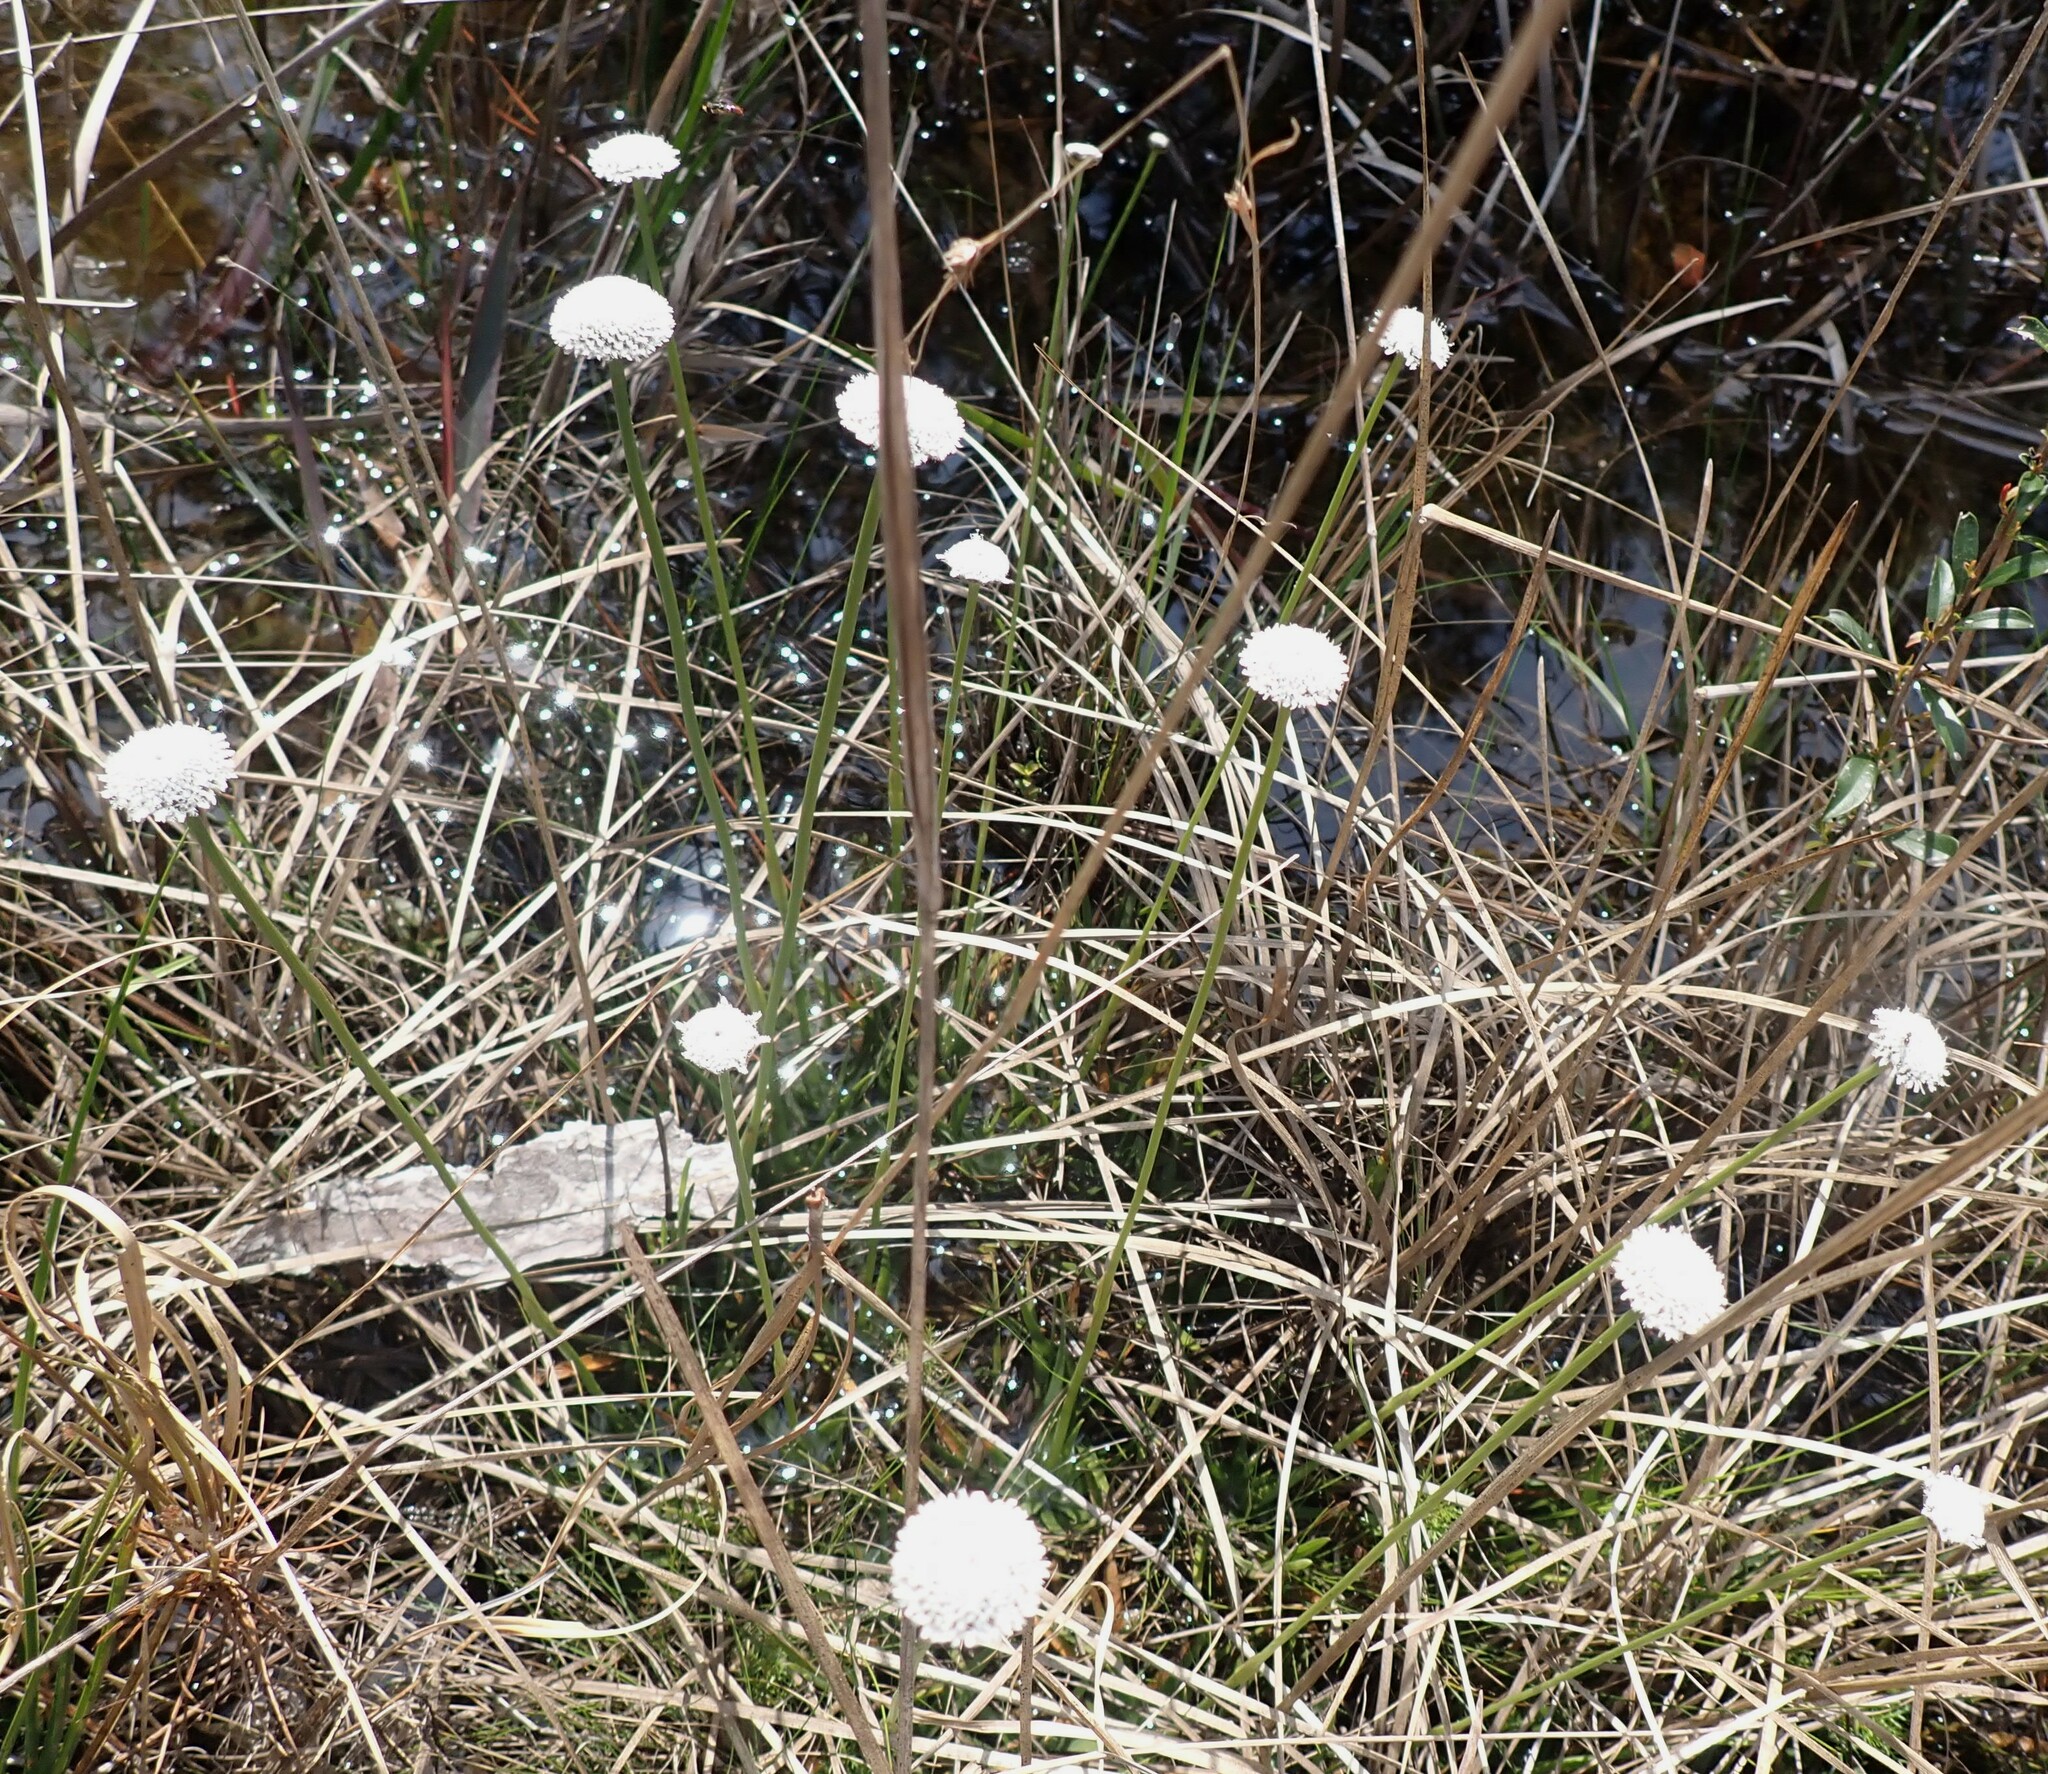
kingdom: Plantae
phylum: Tracheophyta
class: Liliopsida
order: Poales
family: Eriocaulaceae
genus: Eriocaulon
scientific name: Eriocaulon compressum
